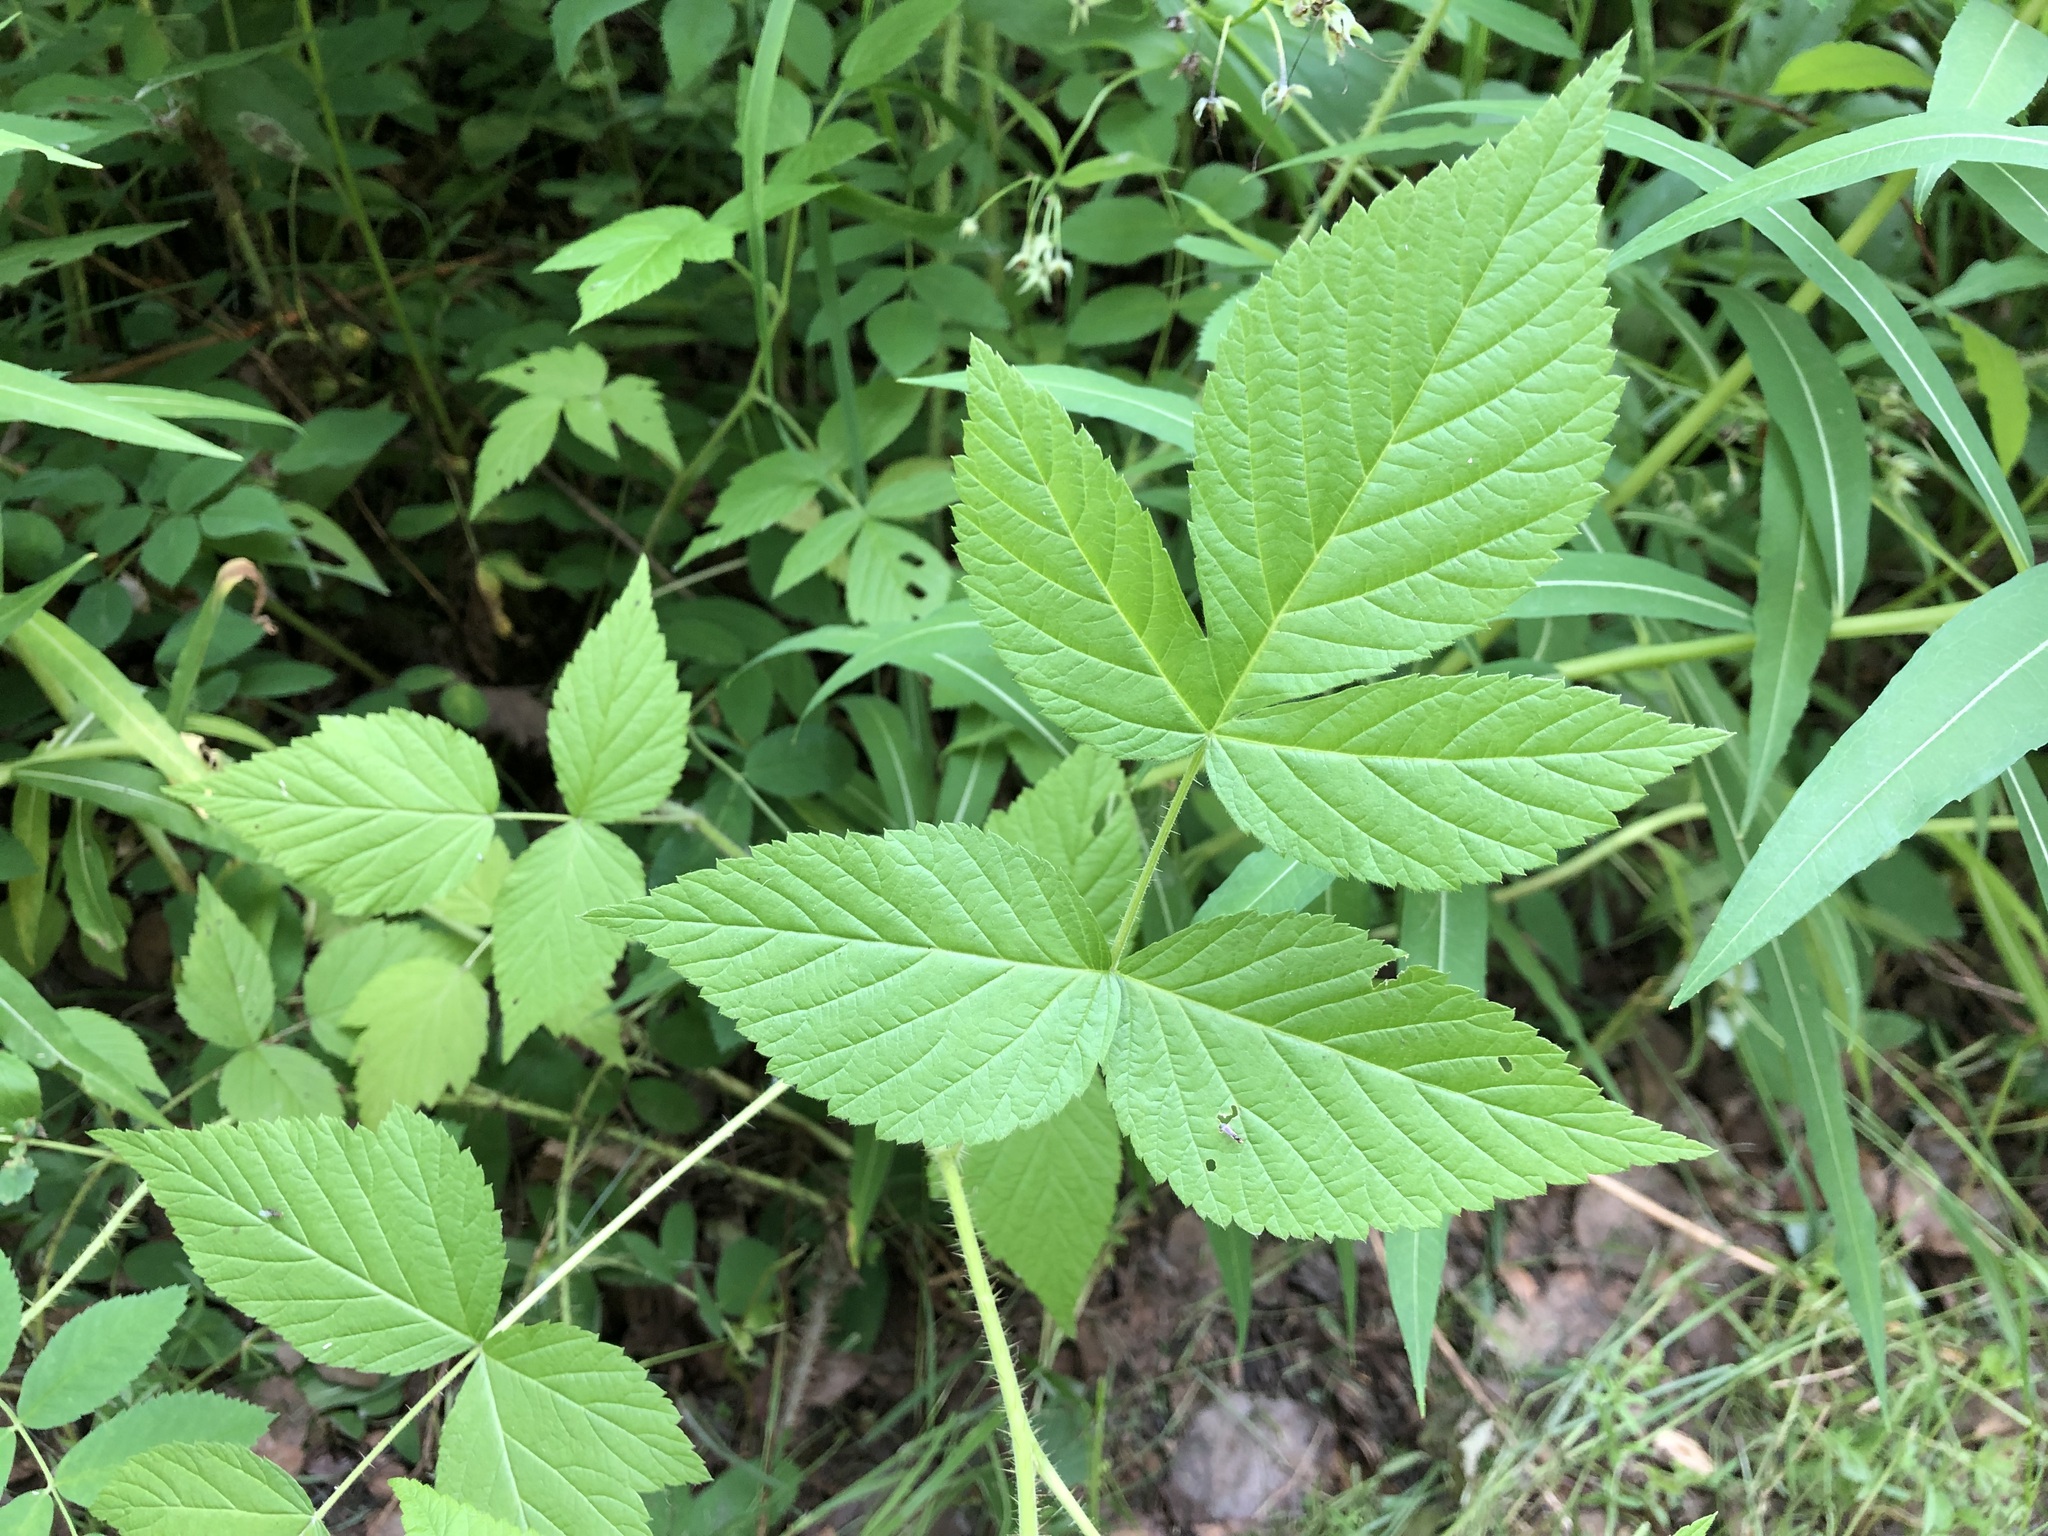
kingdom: Plantae
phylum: Tracheophyta
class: Magnoliopsida
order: Rosales
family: Rosaceae
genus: Rubus
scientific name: Rubus idaeus
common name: Raspberry
